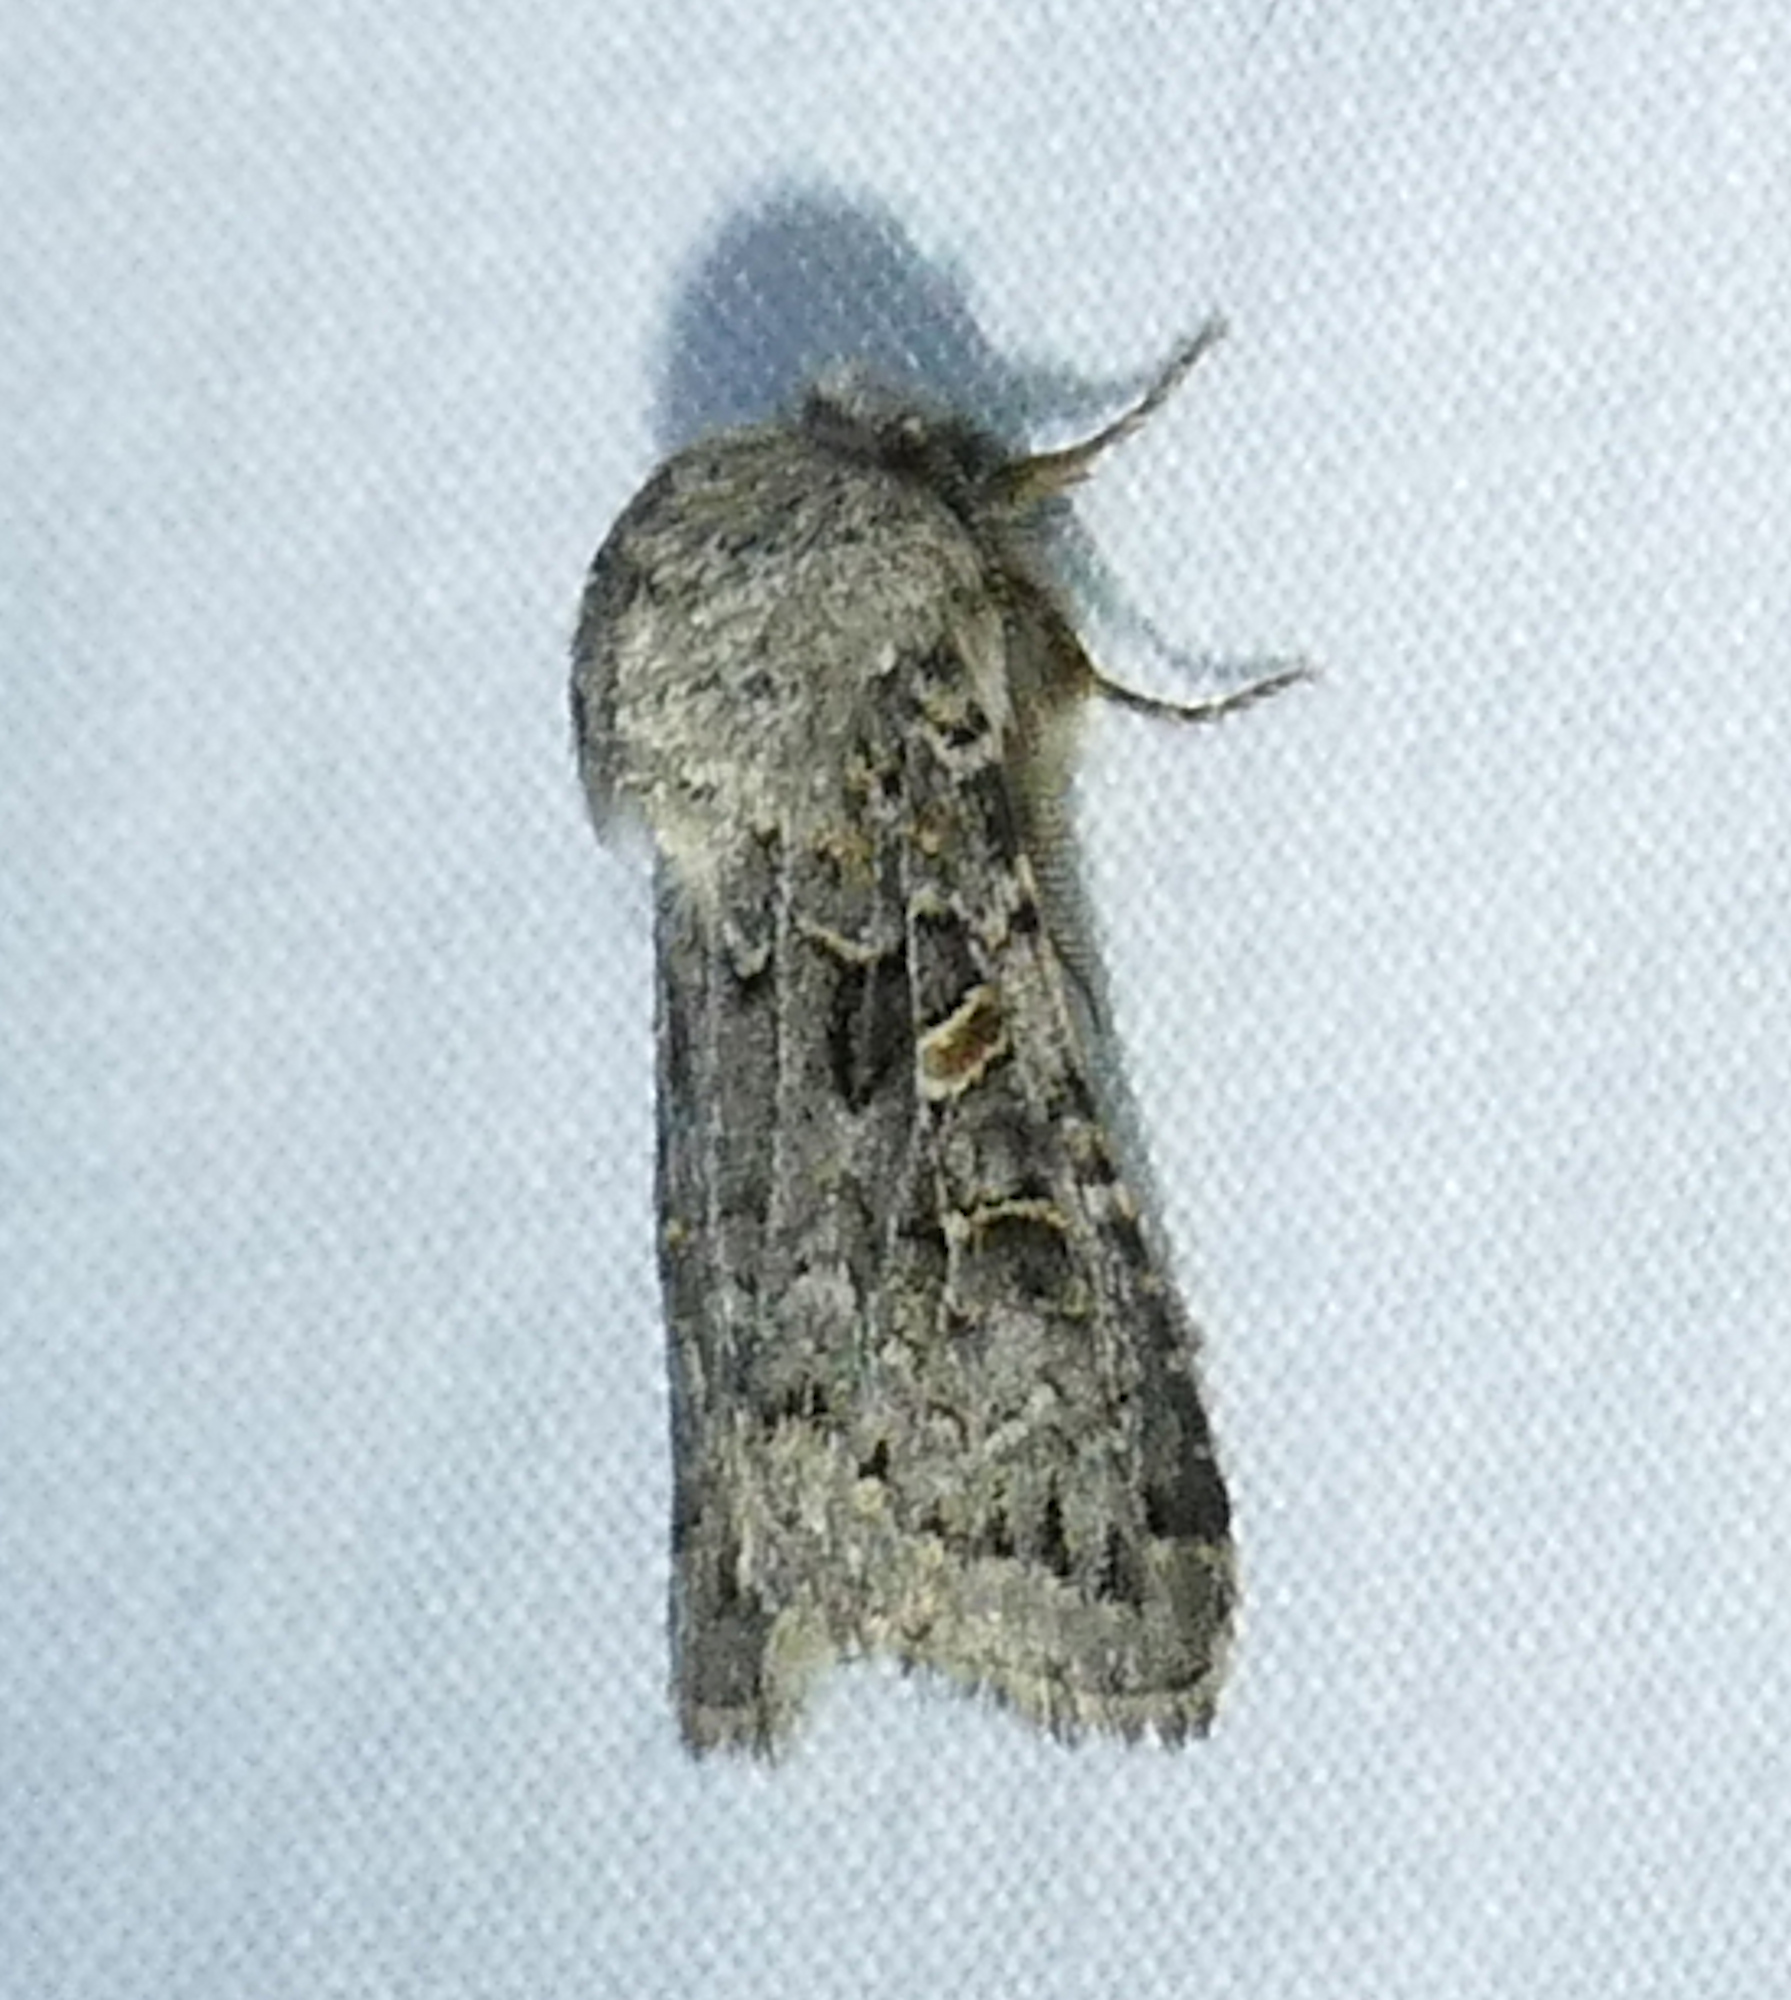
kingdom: Animalia
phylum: Arthropoda
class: Insecta
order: Lepidoptera
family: Noctuidae
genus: Spodoptera
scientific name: Spodoptera hipparis
